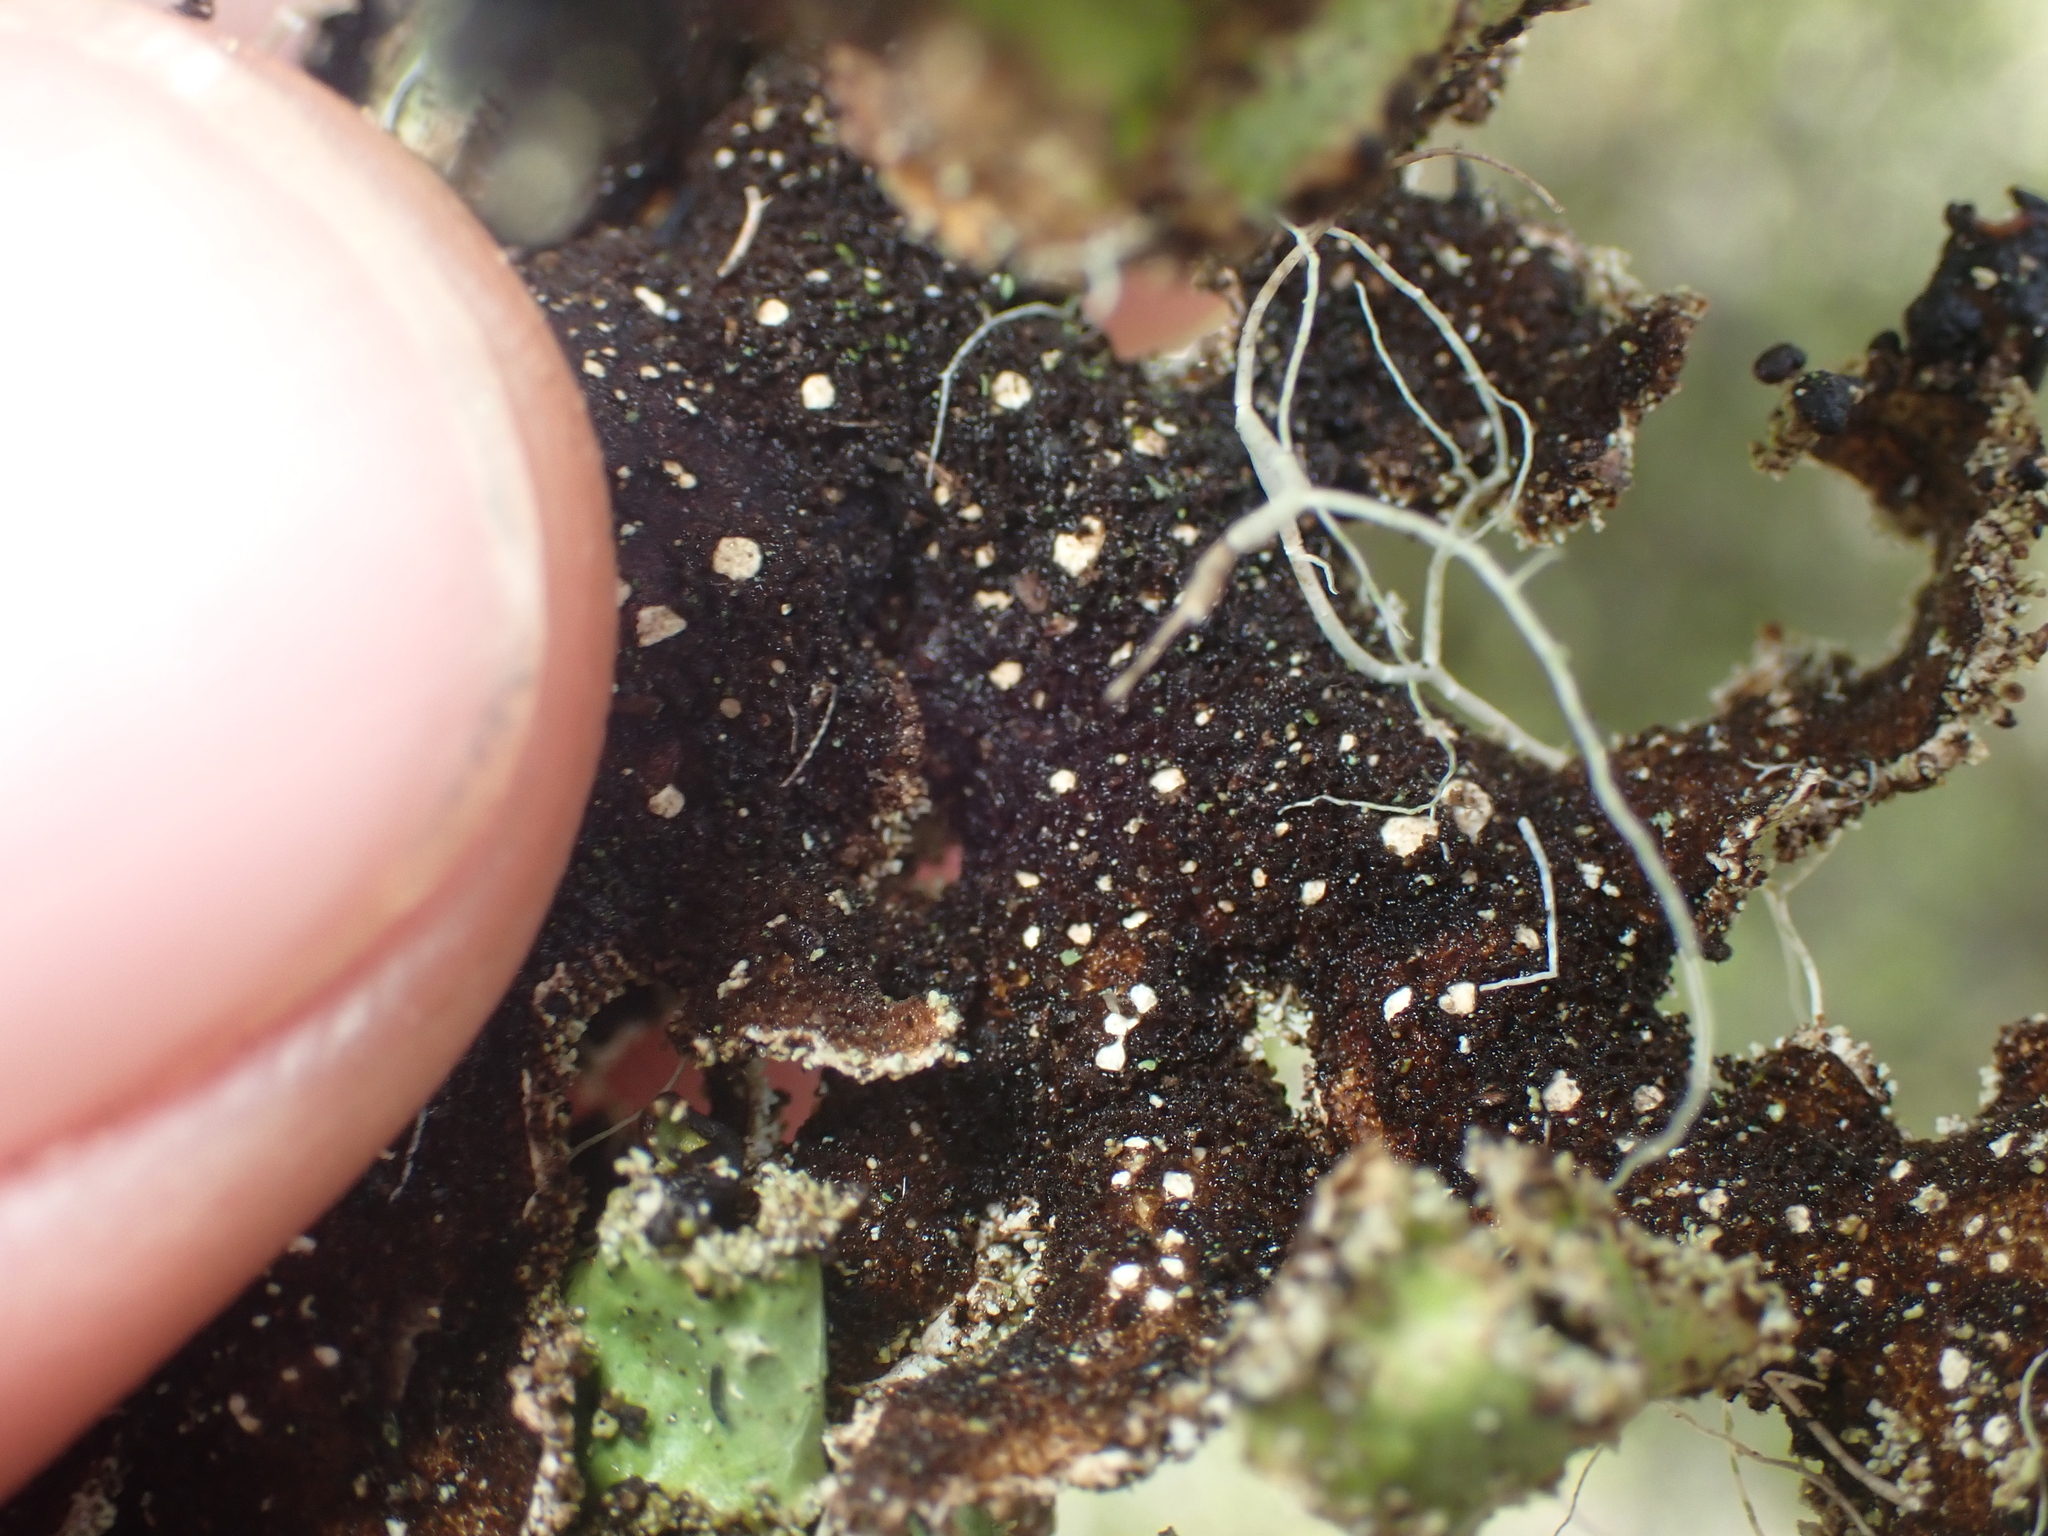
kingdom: Fungi
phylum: Ascomycota
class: Lecanoromycetes
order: Peltigerales
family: Lobariaceae
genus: Pseudocyphellaria
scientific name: Pseudocyphellaria granulata
